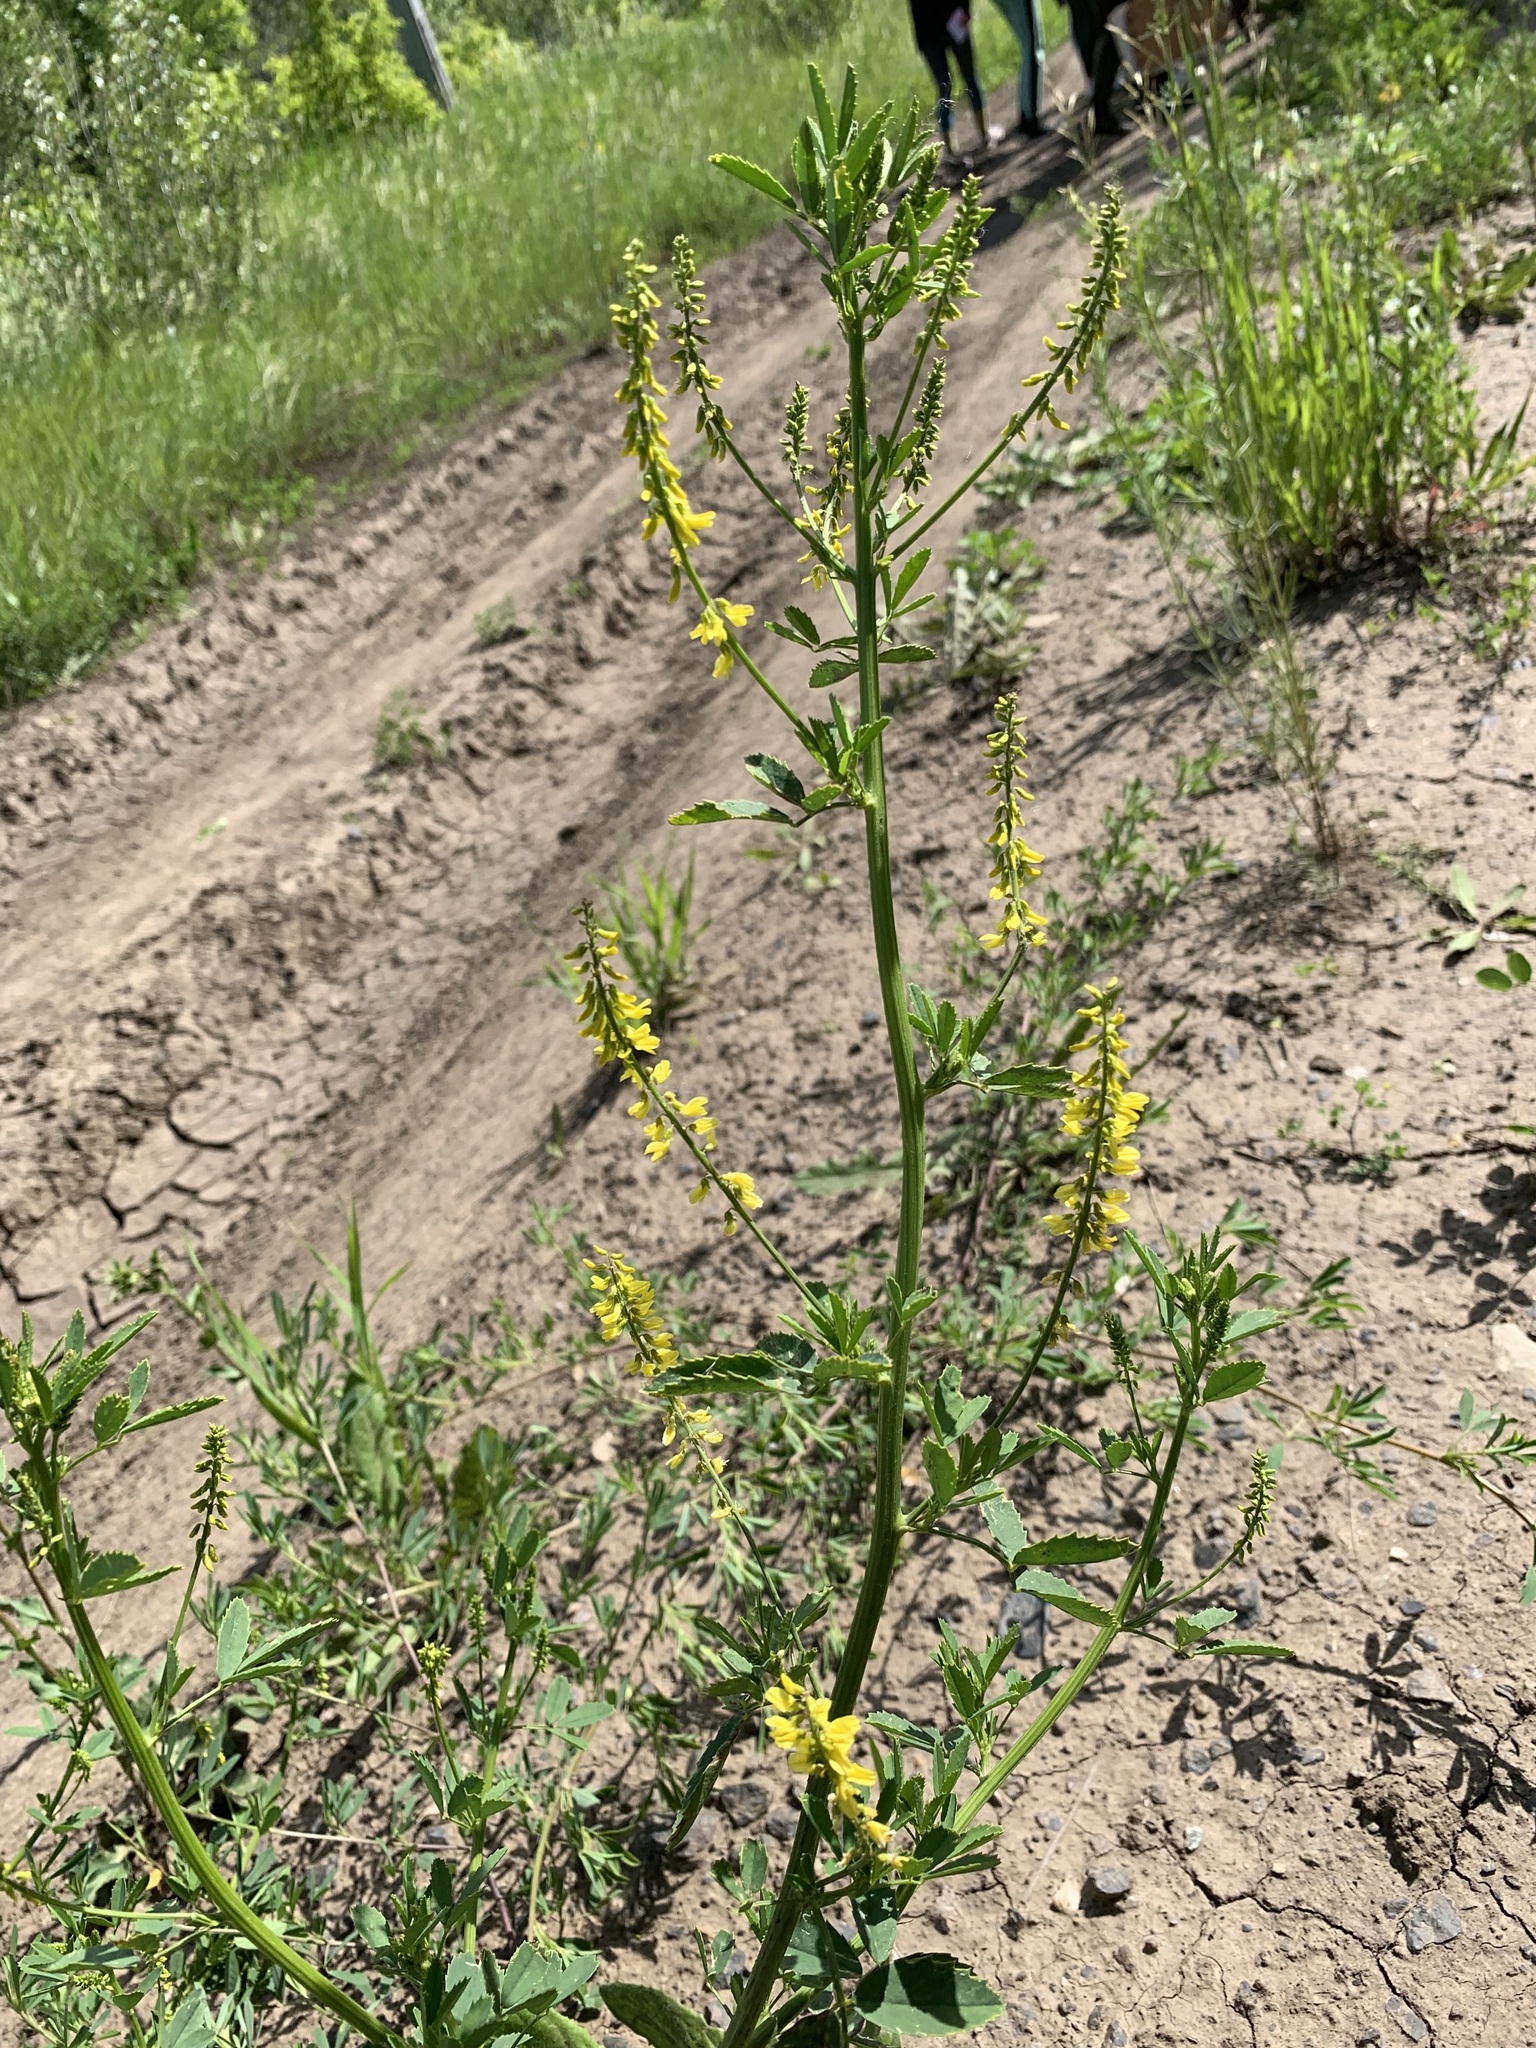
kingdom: Plantae
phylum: Tracheophyta
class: Magnoliopsida
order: Fabales
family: Fabaceae
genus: Melilotus
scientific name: Melilotus officinalis
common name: Sweetclover
